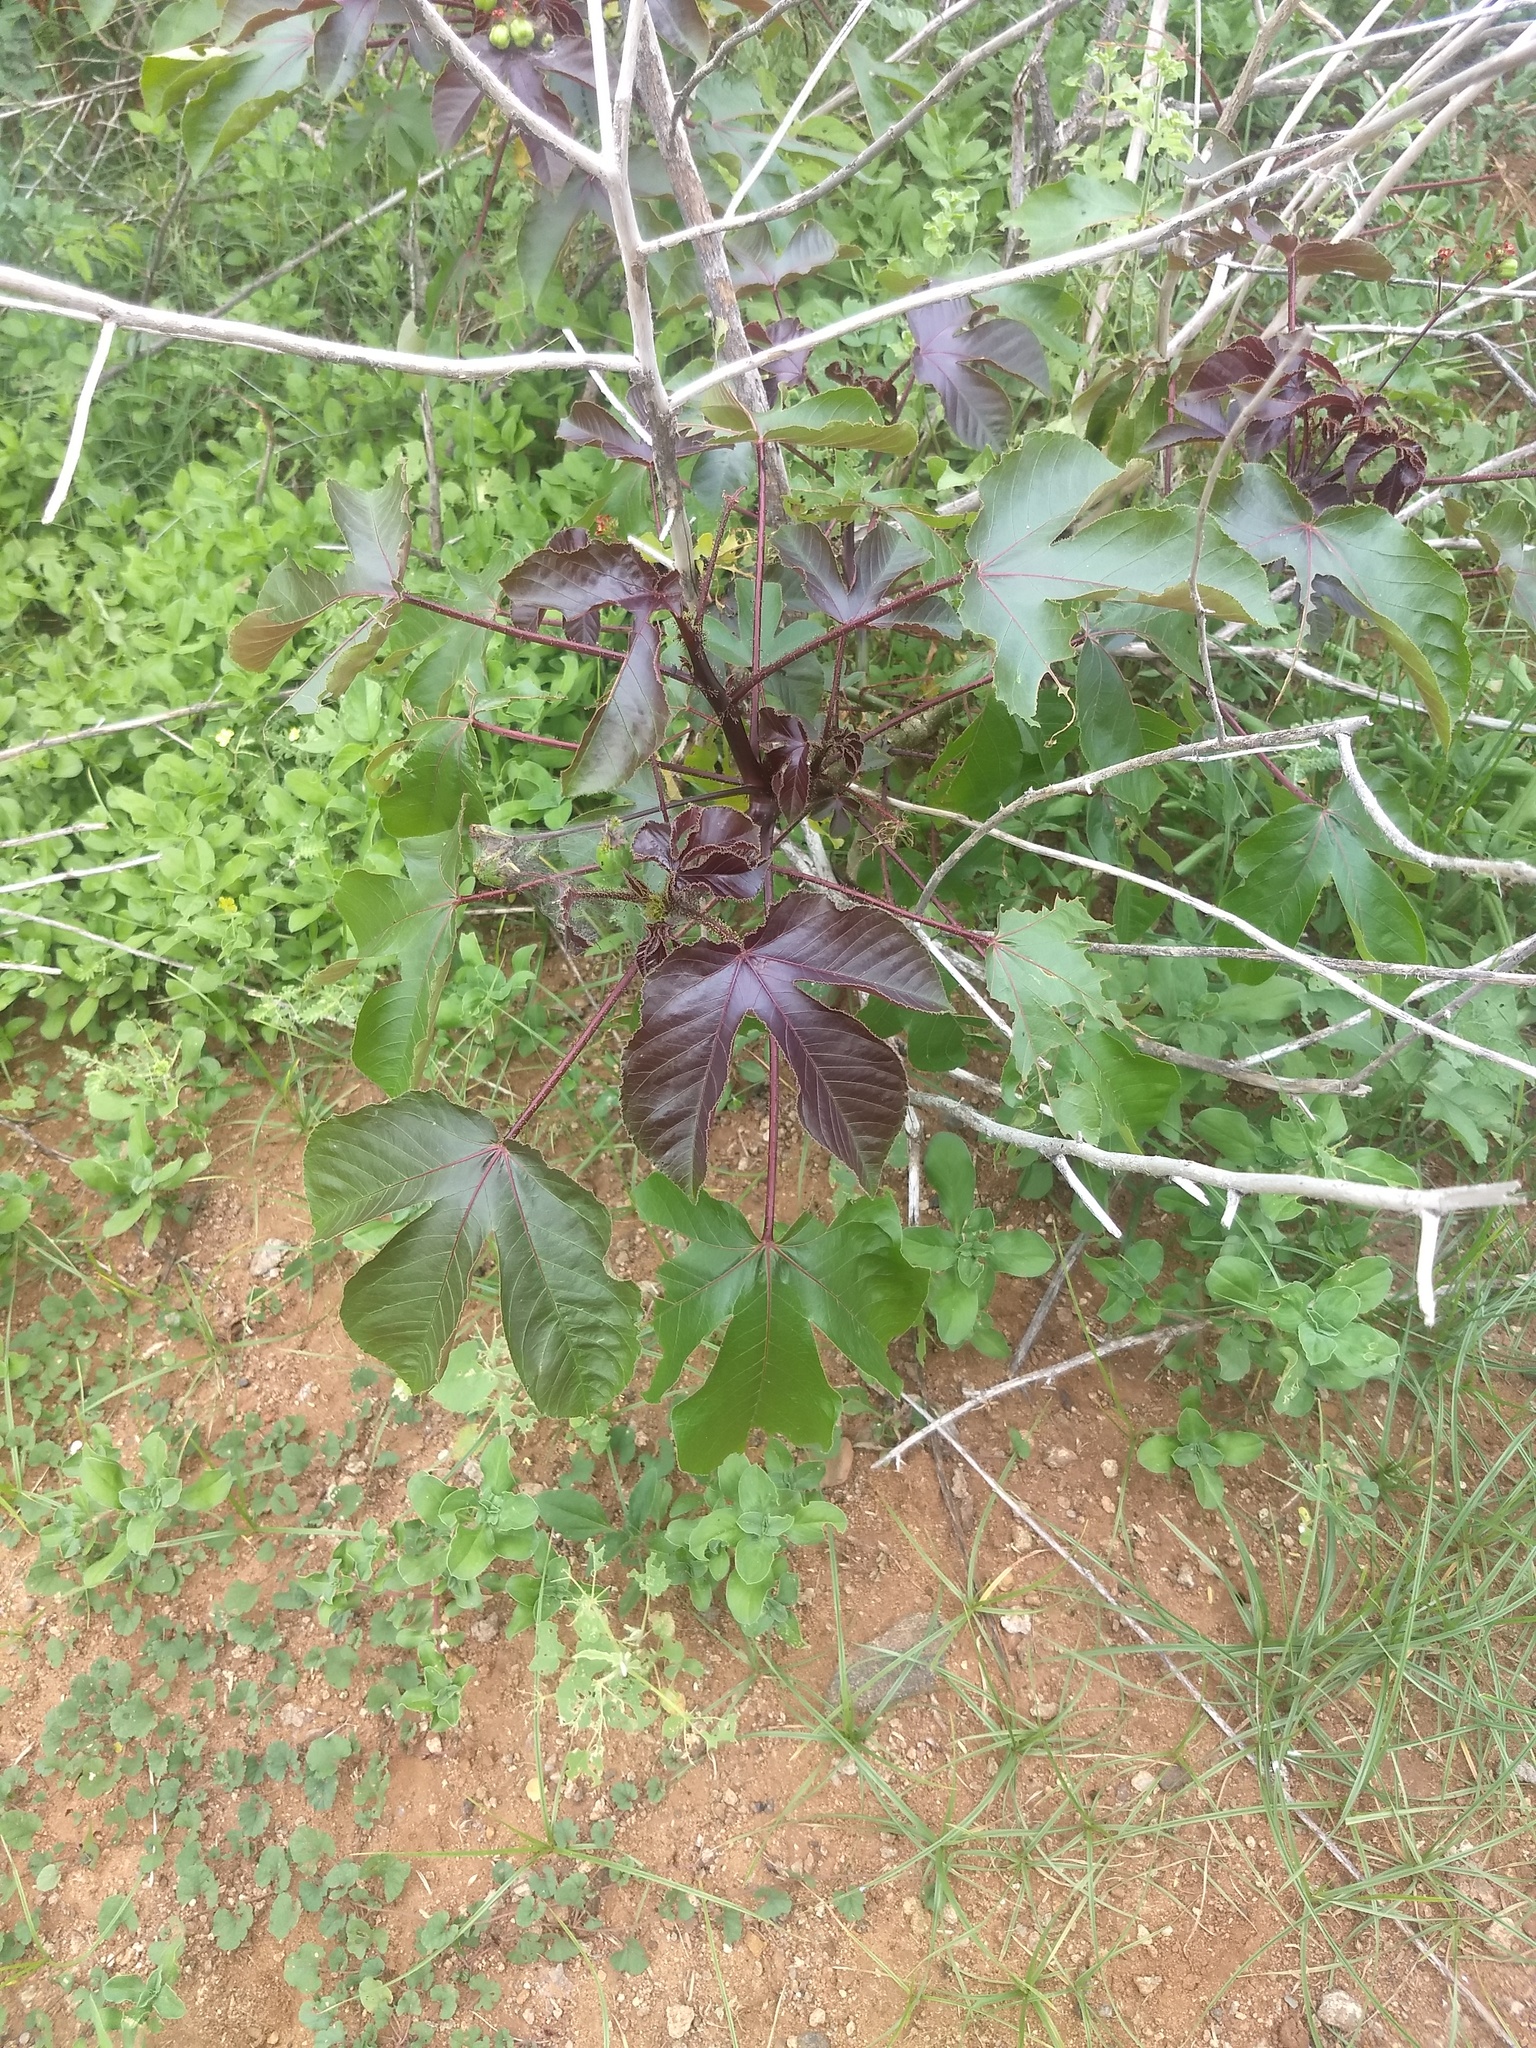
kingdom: Plantae
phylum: Tracheophyta
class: Magnoliopsida
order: Malpighiales
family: Euphorbiaceae
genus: Jatropha
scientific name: Jatropha gossypiifolia
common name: Bellyache bush
